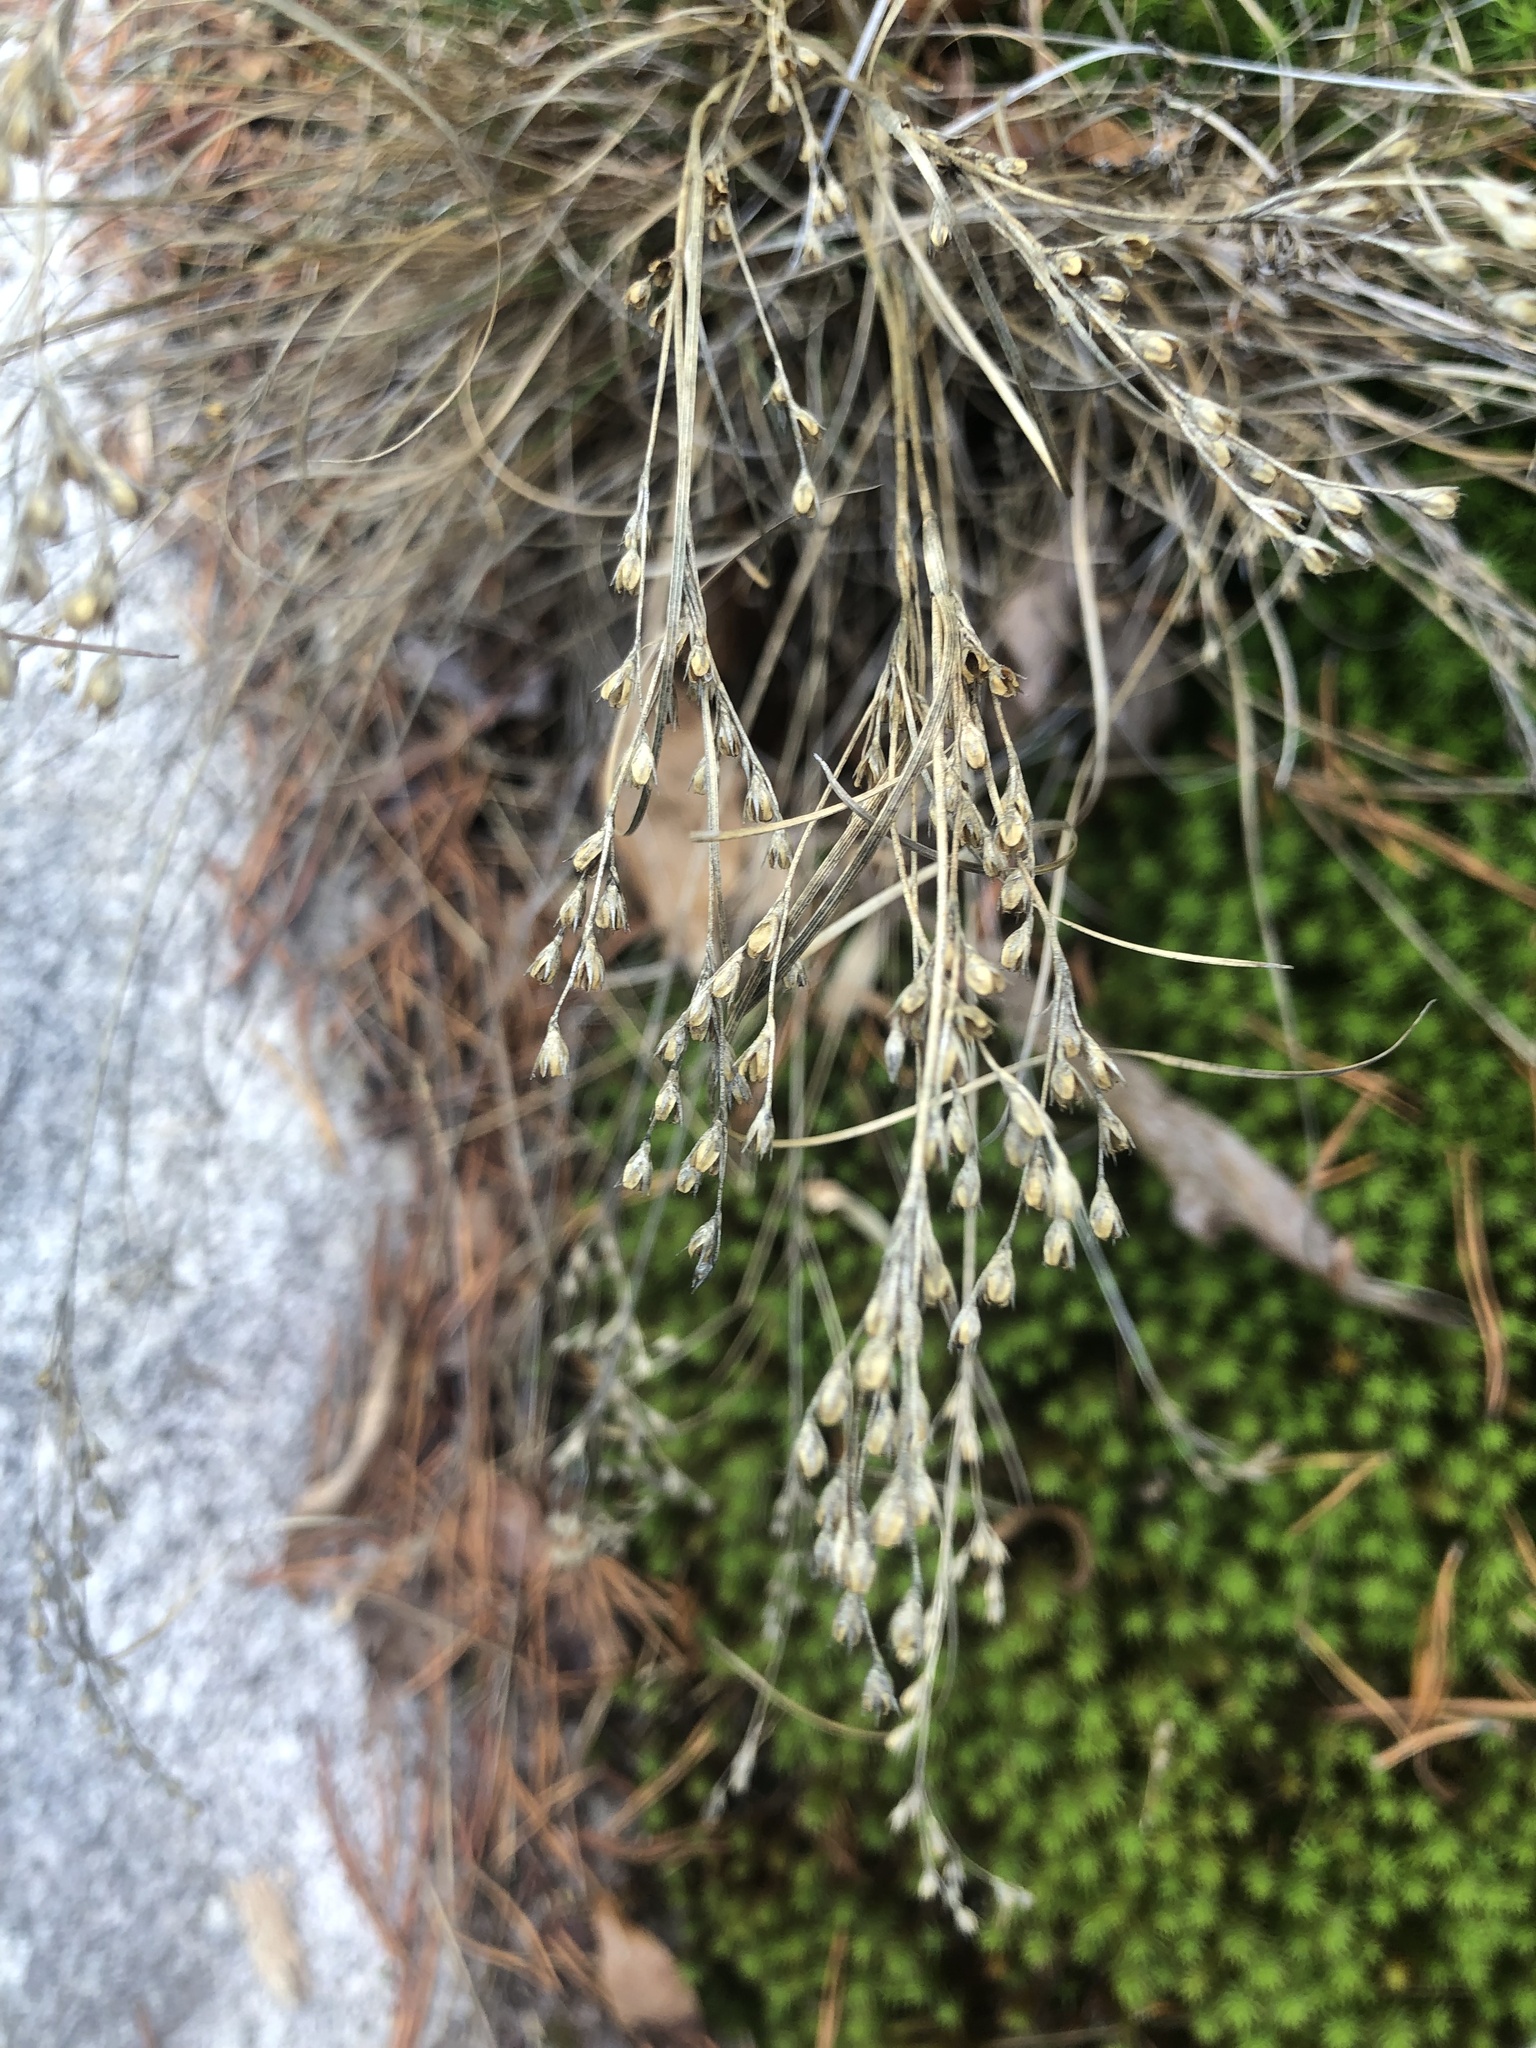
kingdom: Plantae
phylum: Tracheophyta
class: Liliopsida
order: Poales
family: Juncaceae
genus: Juncus
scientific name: Juncus georgianus
